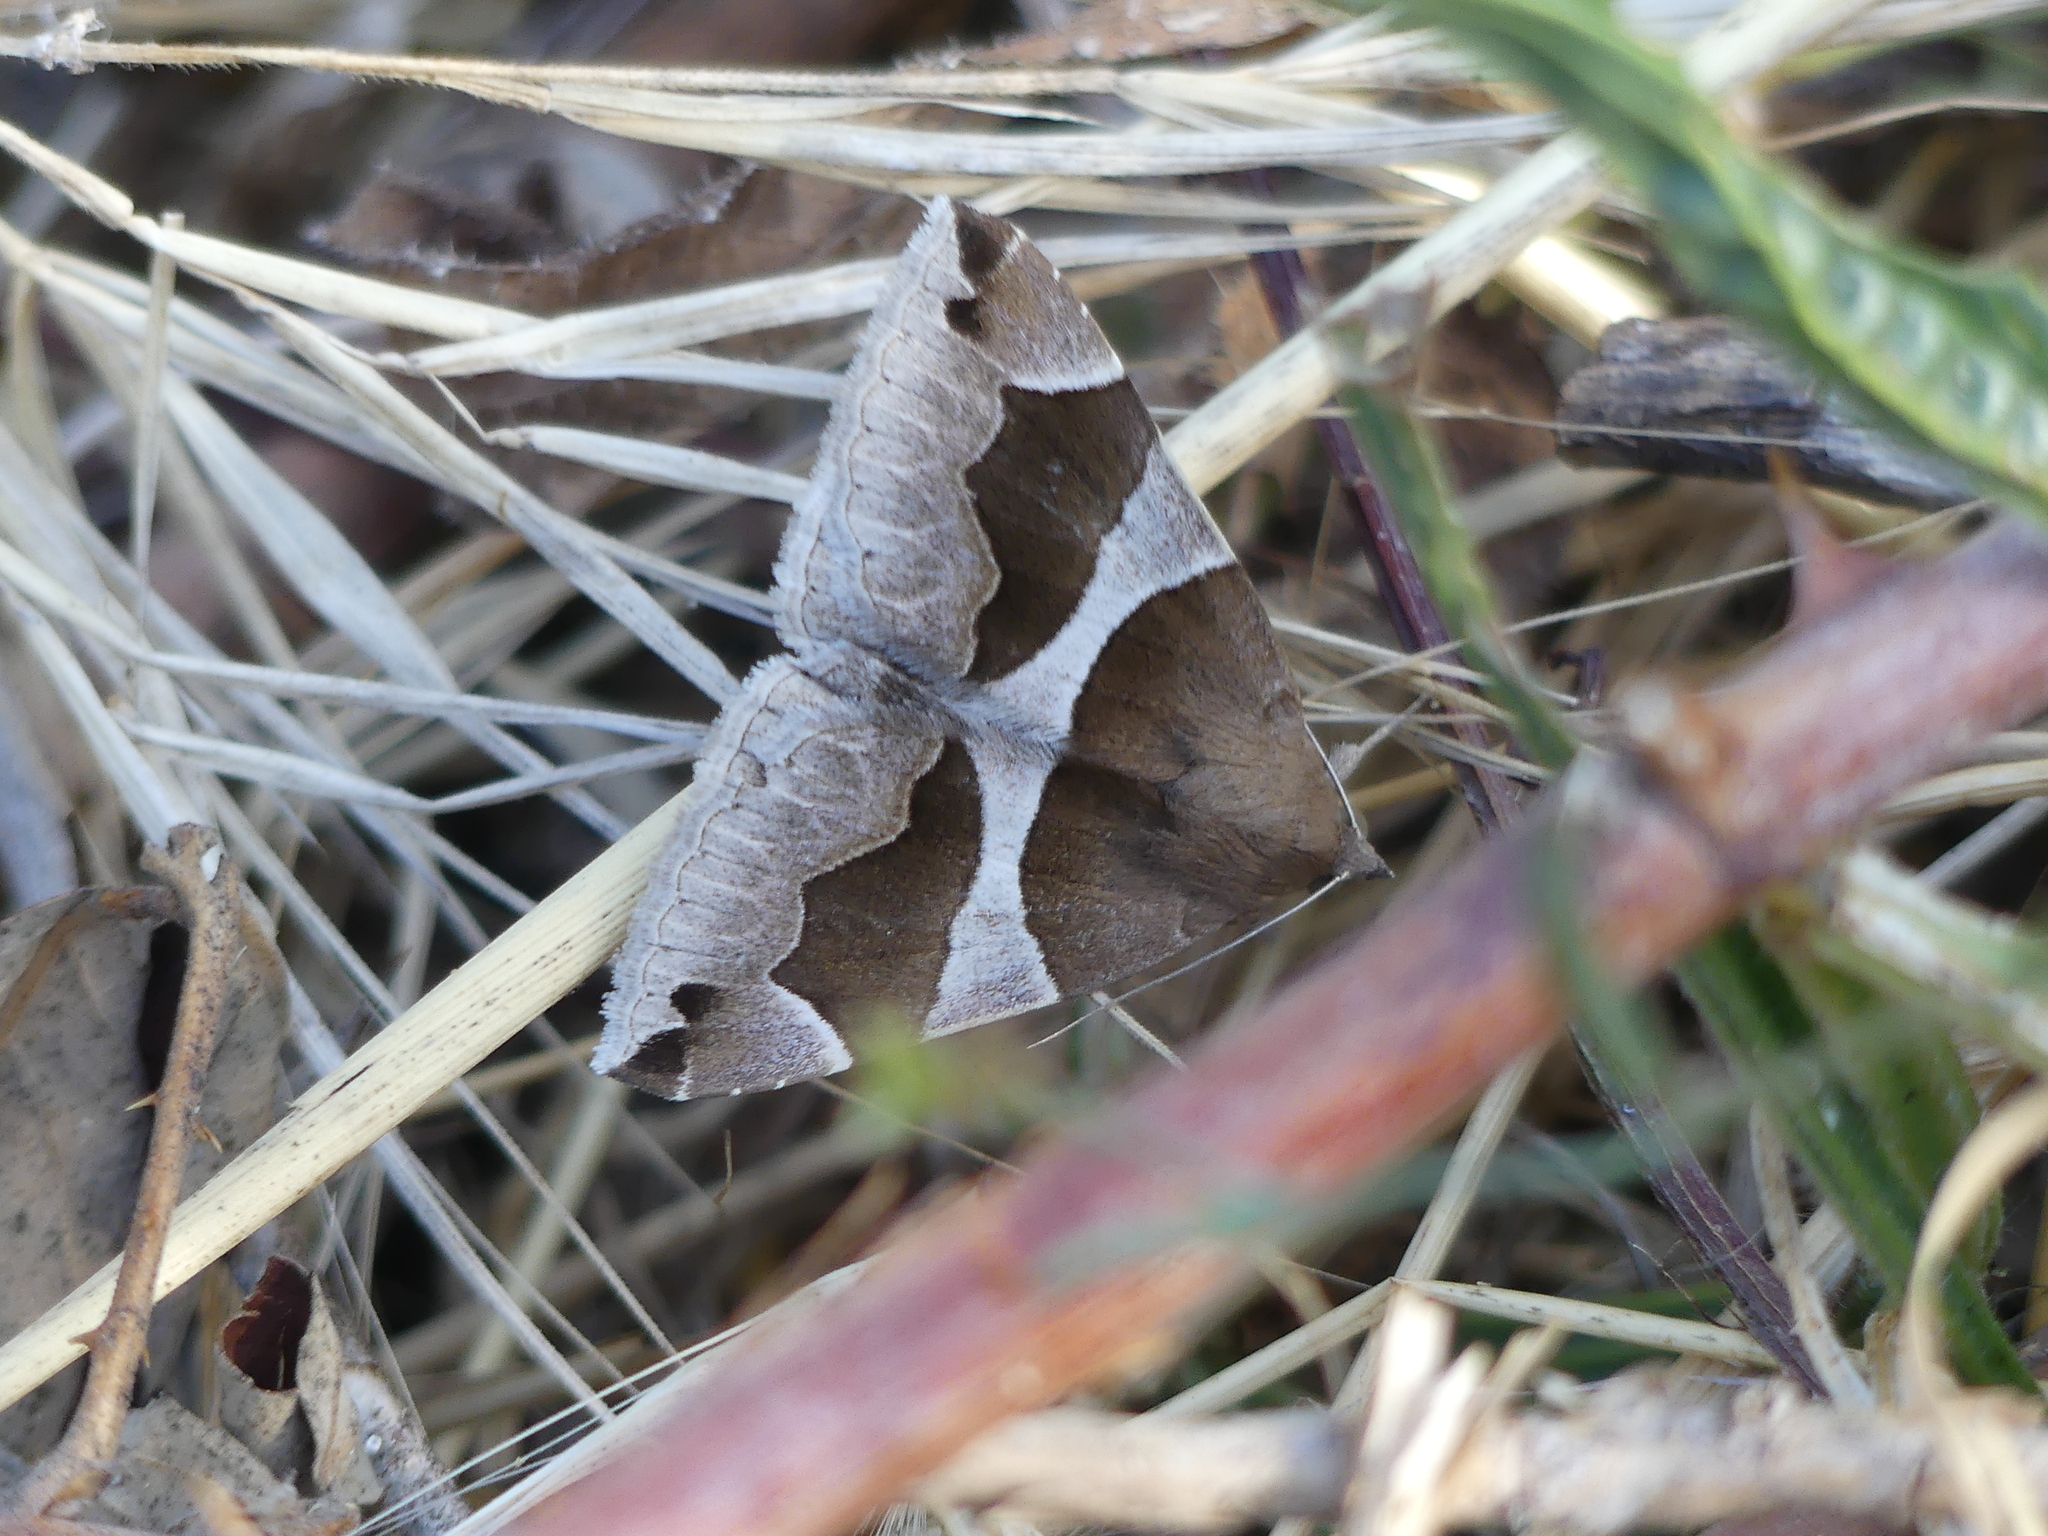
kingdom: Animalia
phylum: Arthropoda
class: Insecta
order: Lepidoptera
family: Erebidae
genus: Dysgonia
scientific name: Dysgonia algira
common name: Passenger
